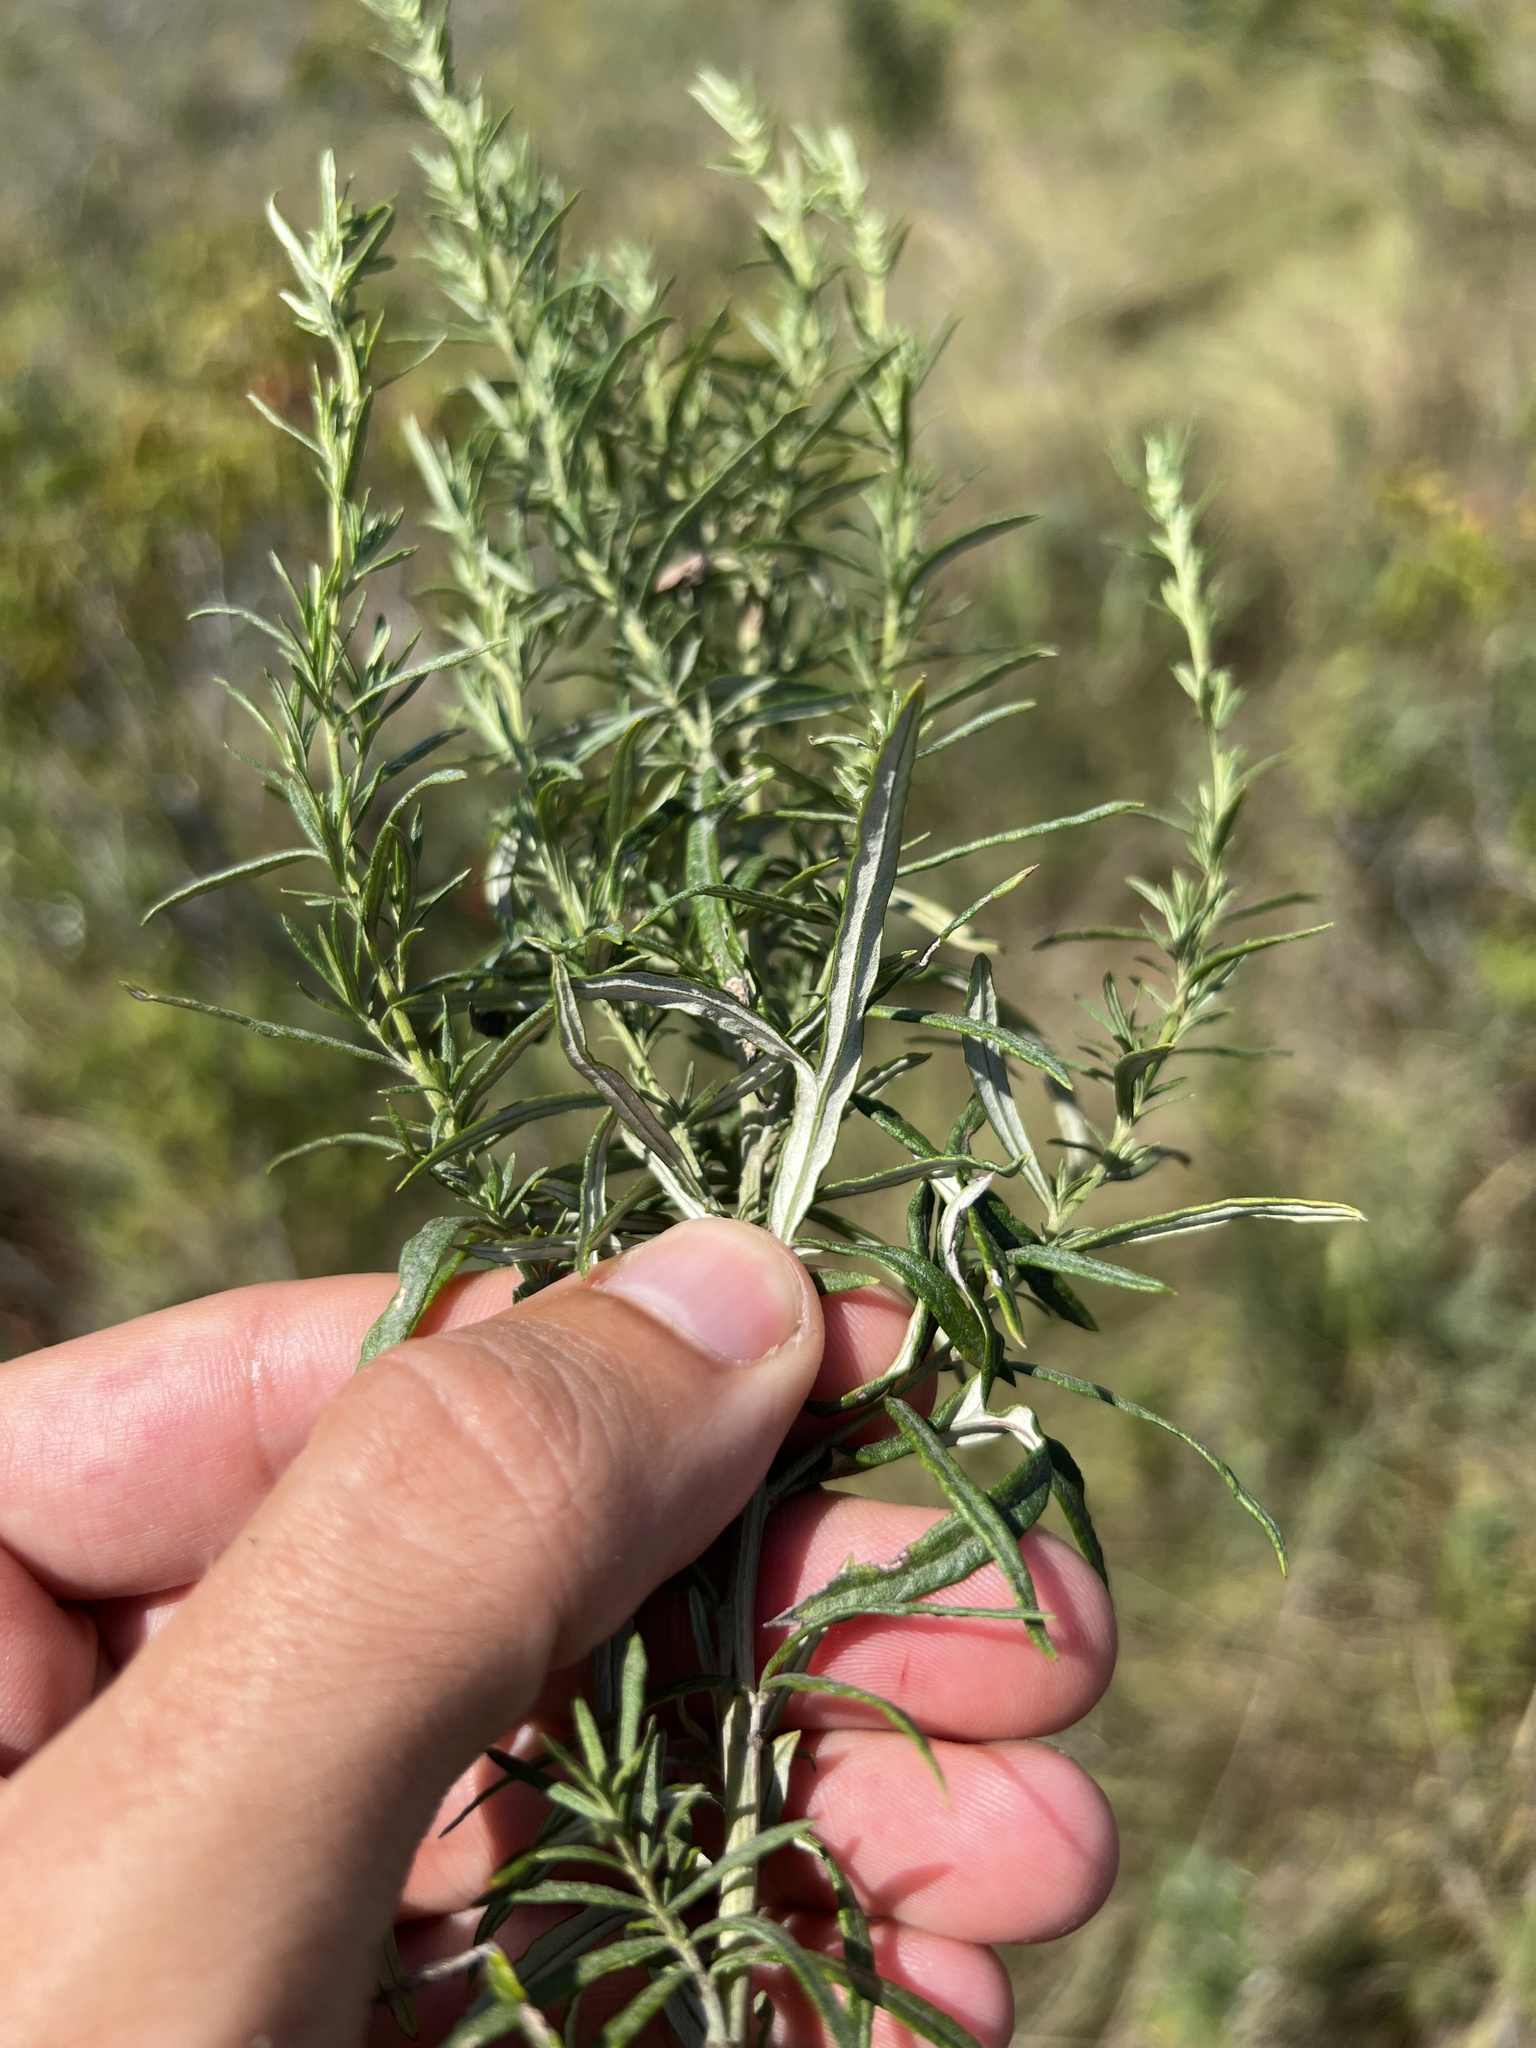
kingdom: Plantae
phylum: Tracheophyta
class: Magnoliopsida
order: Asterales
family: Asteraceae
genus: Artemisia
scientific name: Artemisia ludoviciana
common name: Western mugwort
